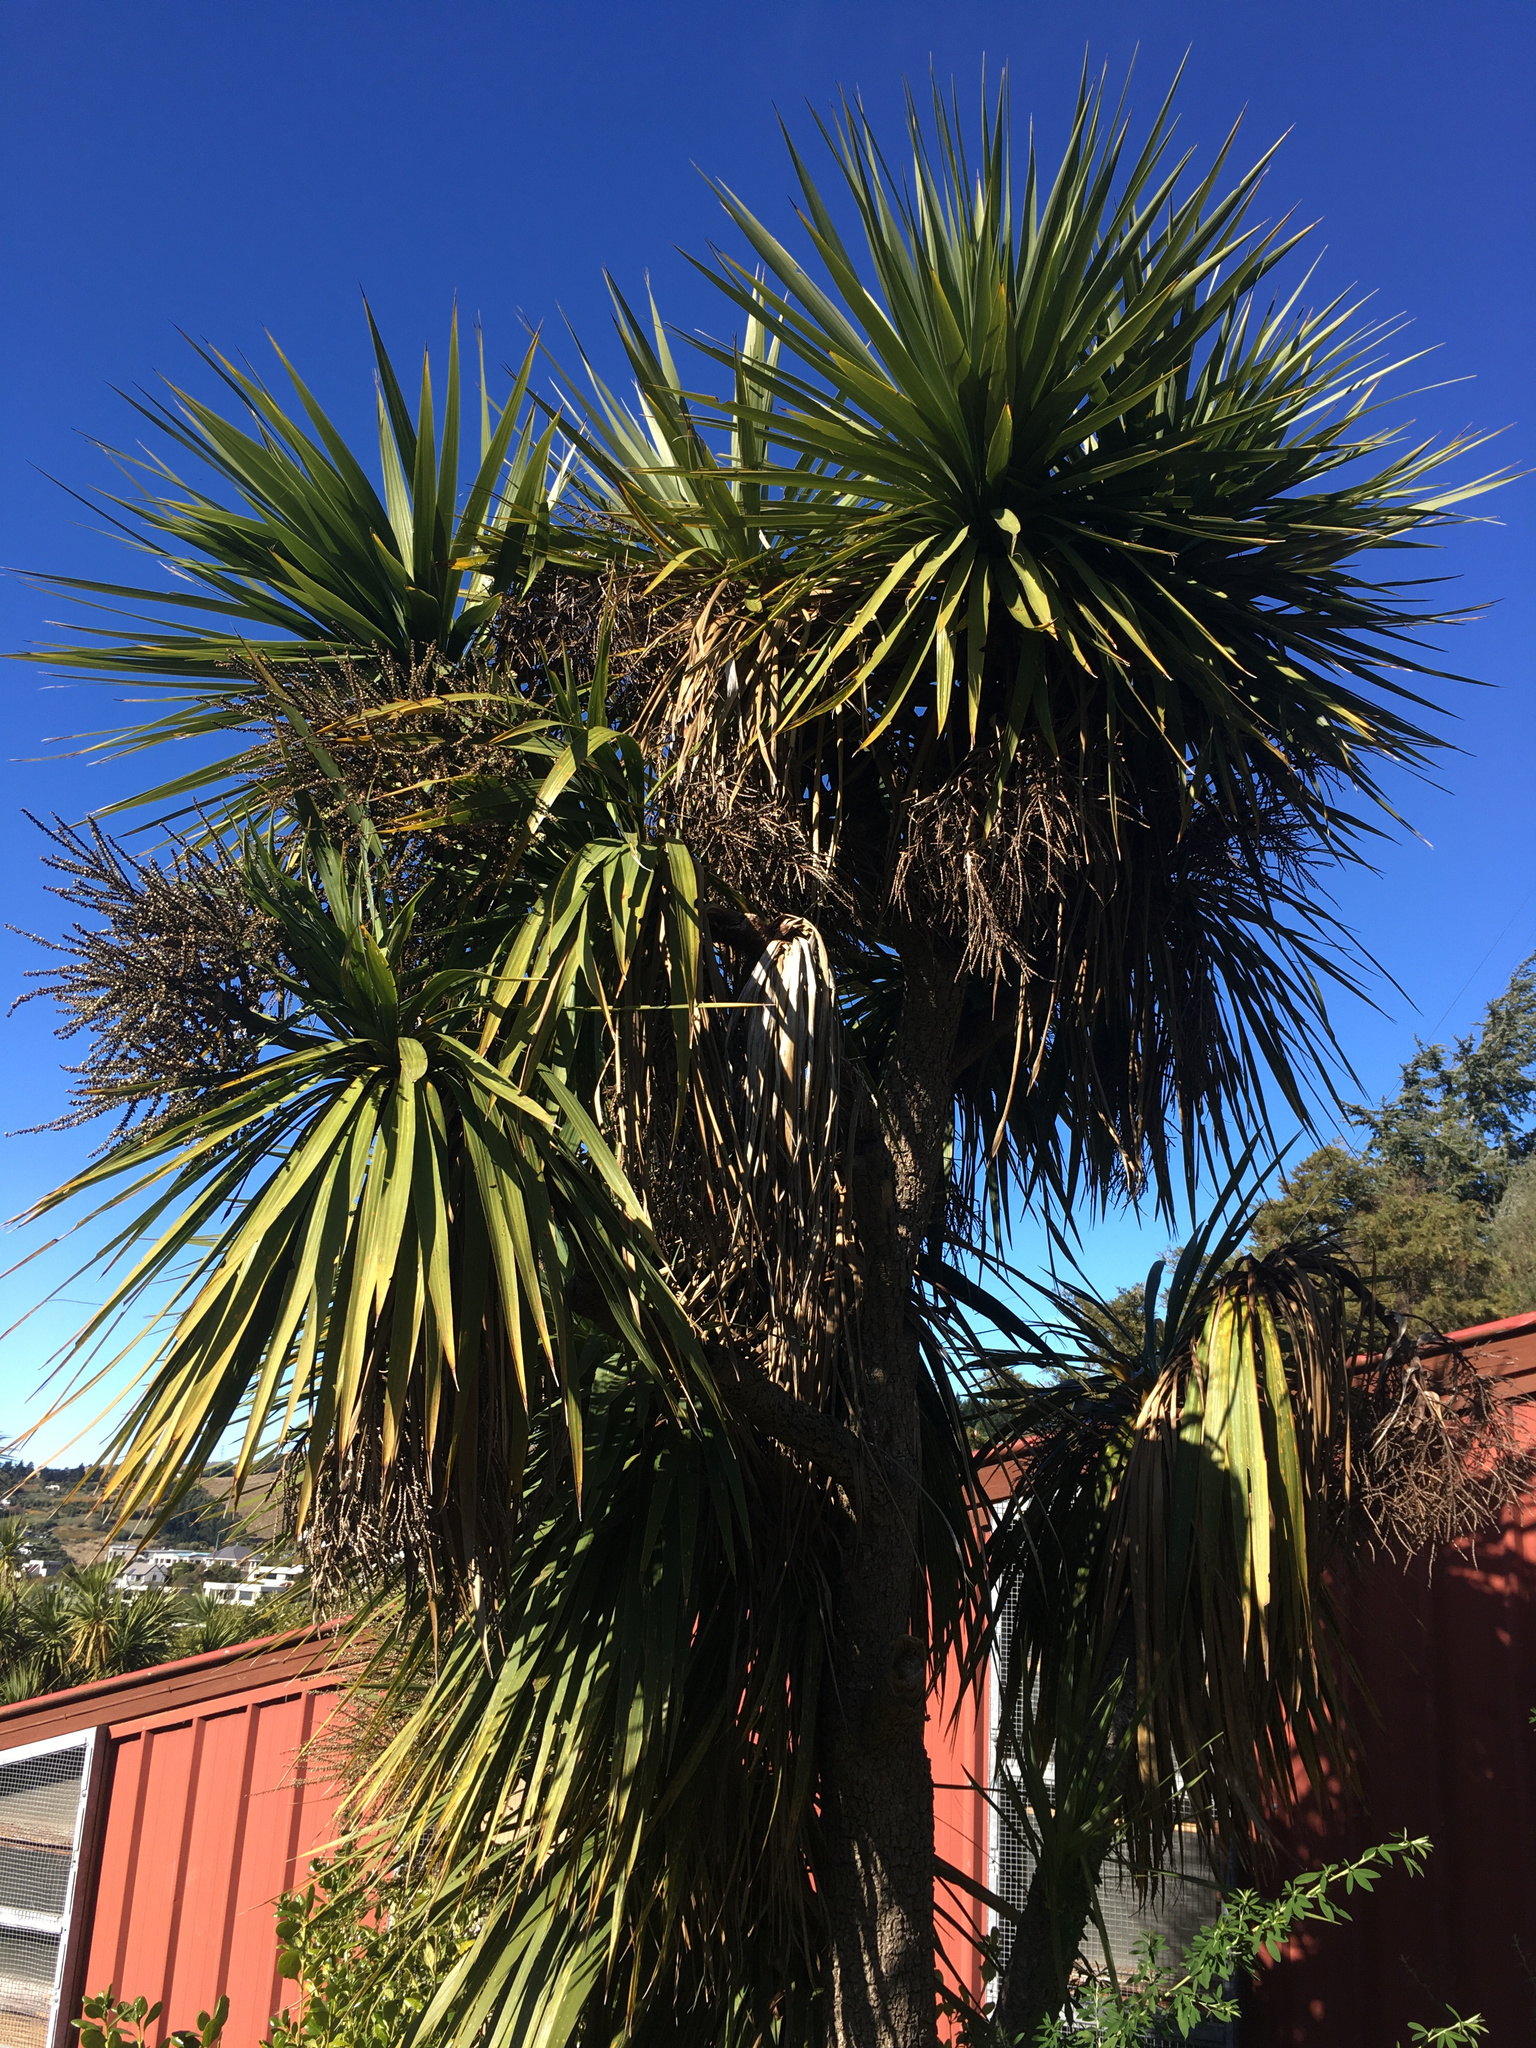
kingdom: Plantae
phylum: Tracheophyta
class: Liliopsida
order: Asparagales
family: Asparagaceae
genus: Cordyline
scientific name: Cordyline australis
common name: Cabbage-palm
